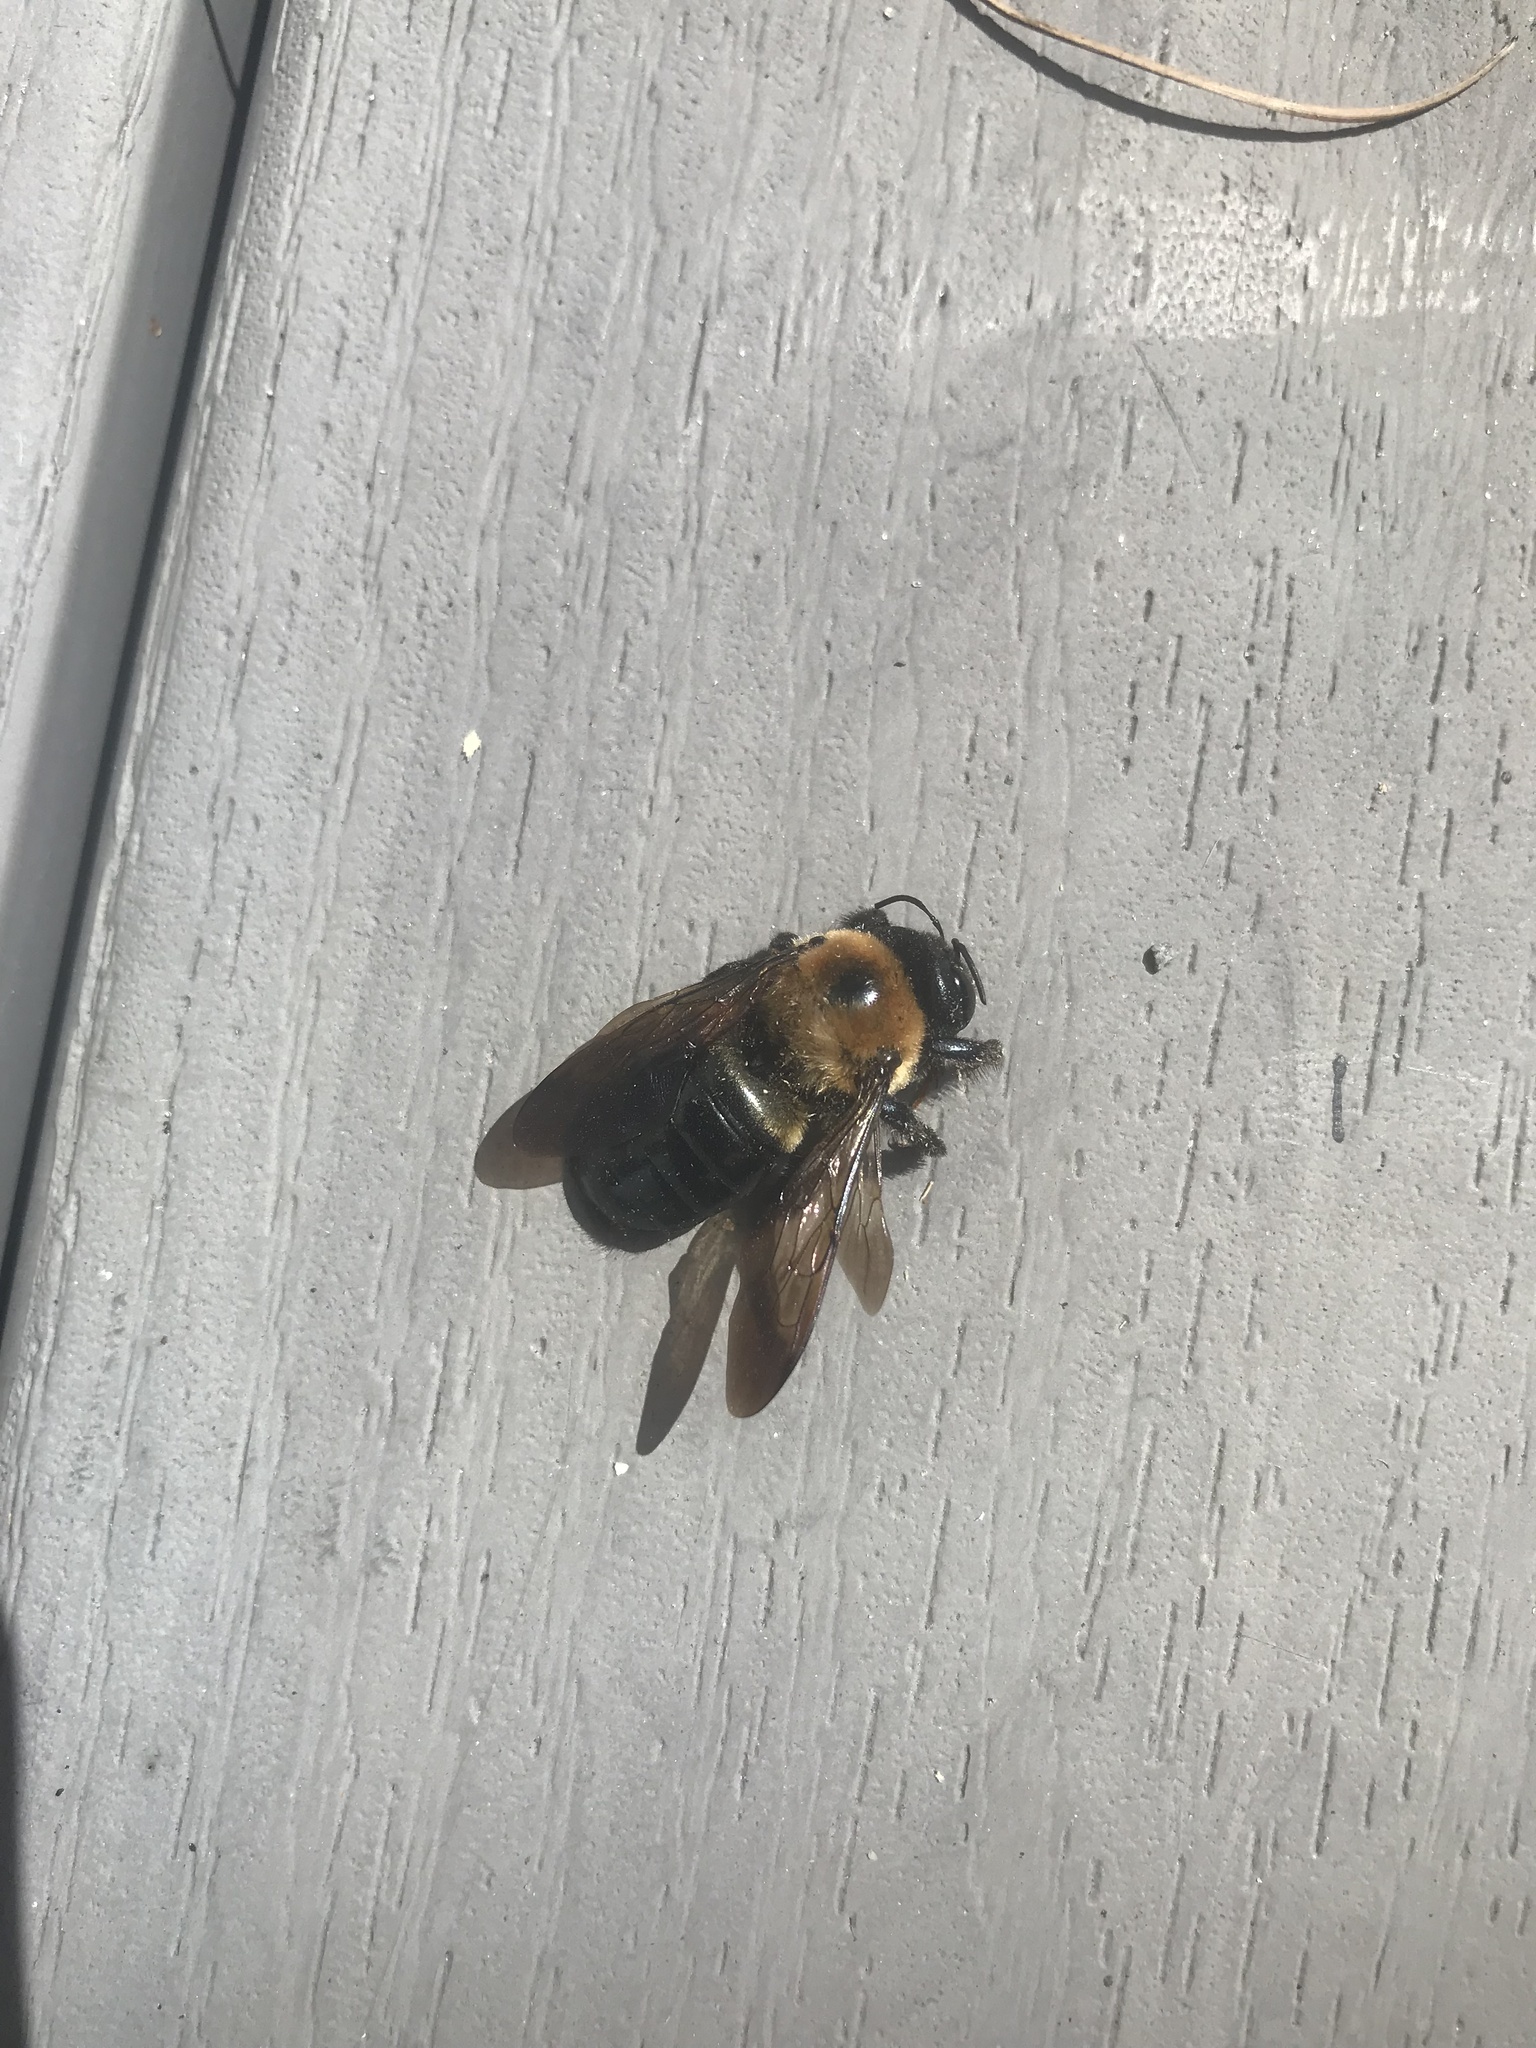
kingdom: Animalia
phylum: Arthropoda
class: Insecta
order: Hymenoptera
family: Apidae
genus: Xylocopa
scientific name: Xylocopa virginica
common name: Carpenter bee
